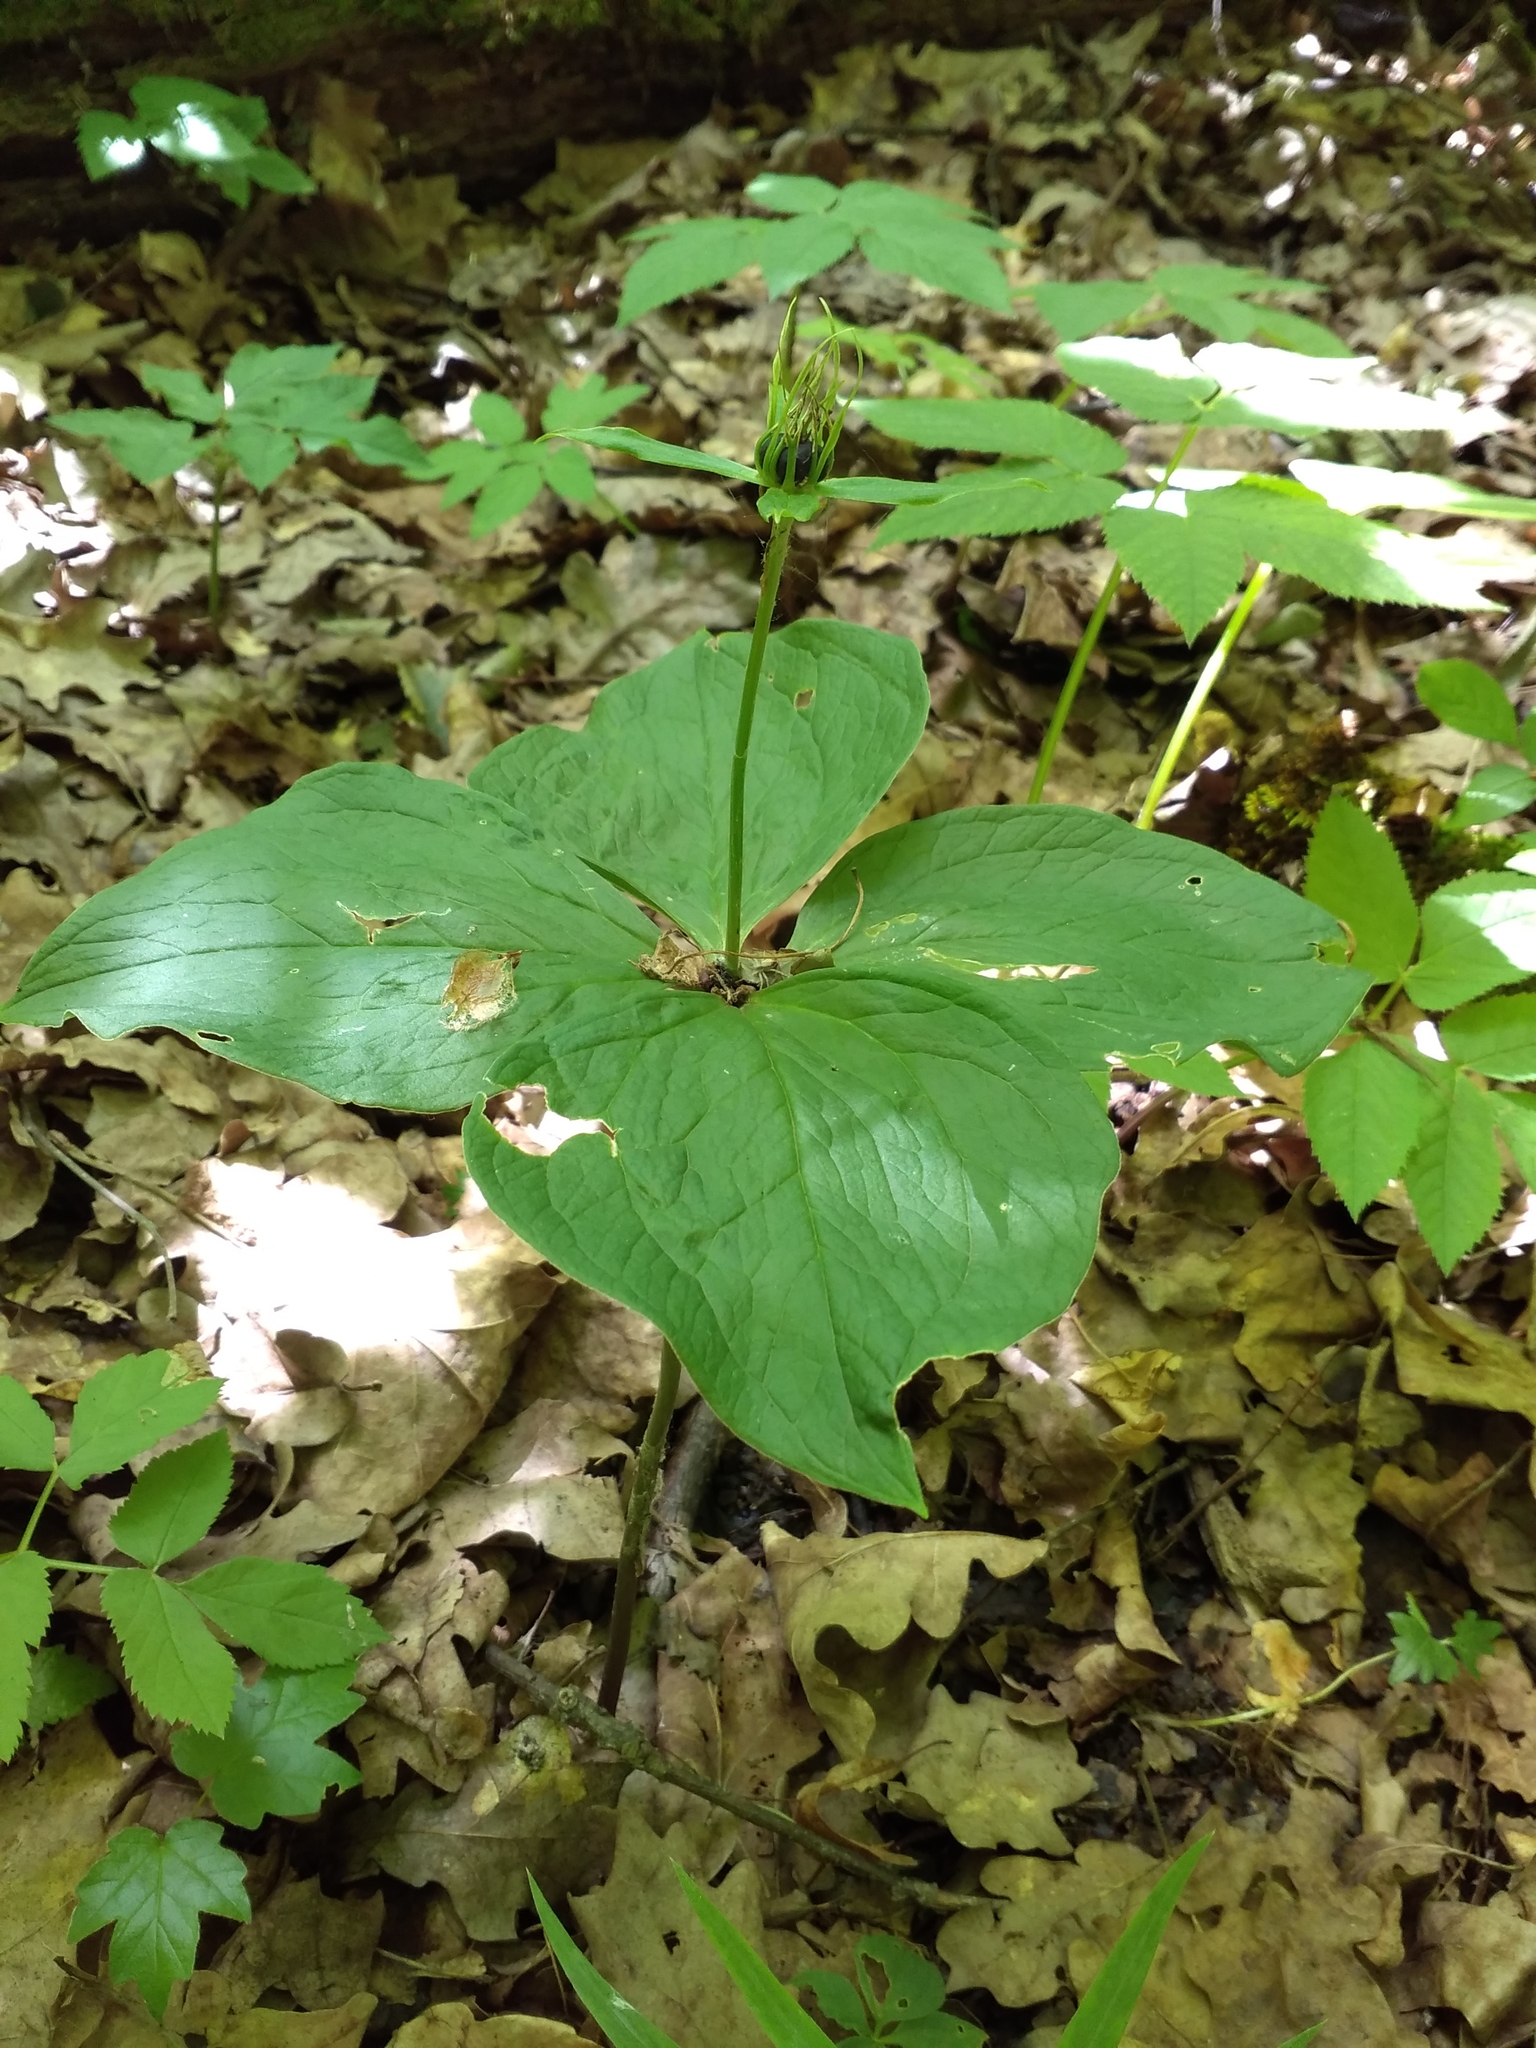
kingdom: Plantae
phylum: Tracheophyta
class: Liliopsida
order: Liliales
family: Melanthiaceae
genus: Paris
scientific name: Paris quadrifolia
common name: Herb-paris
